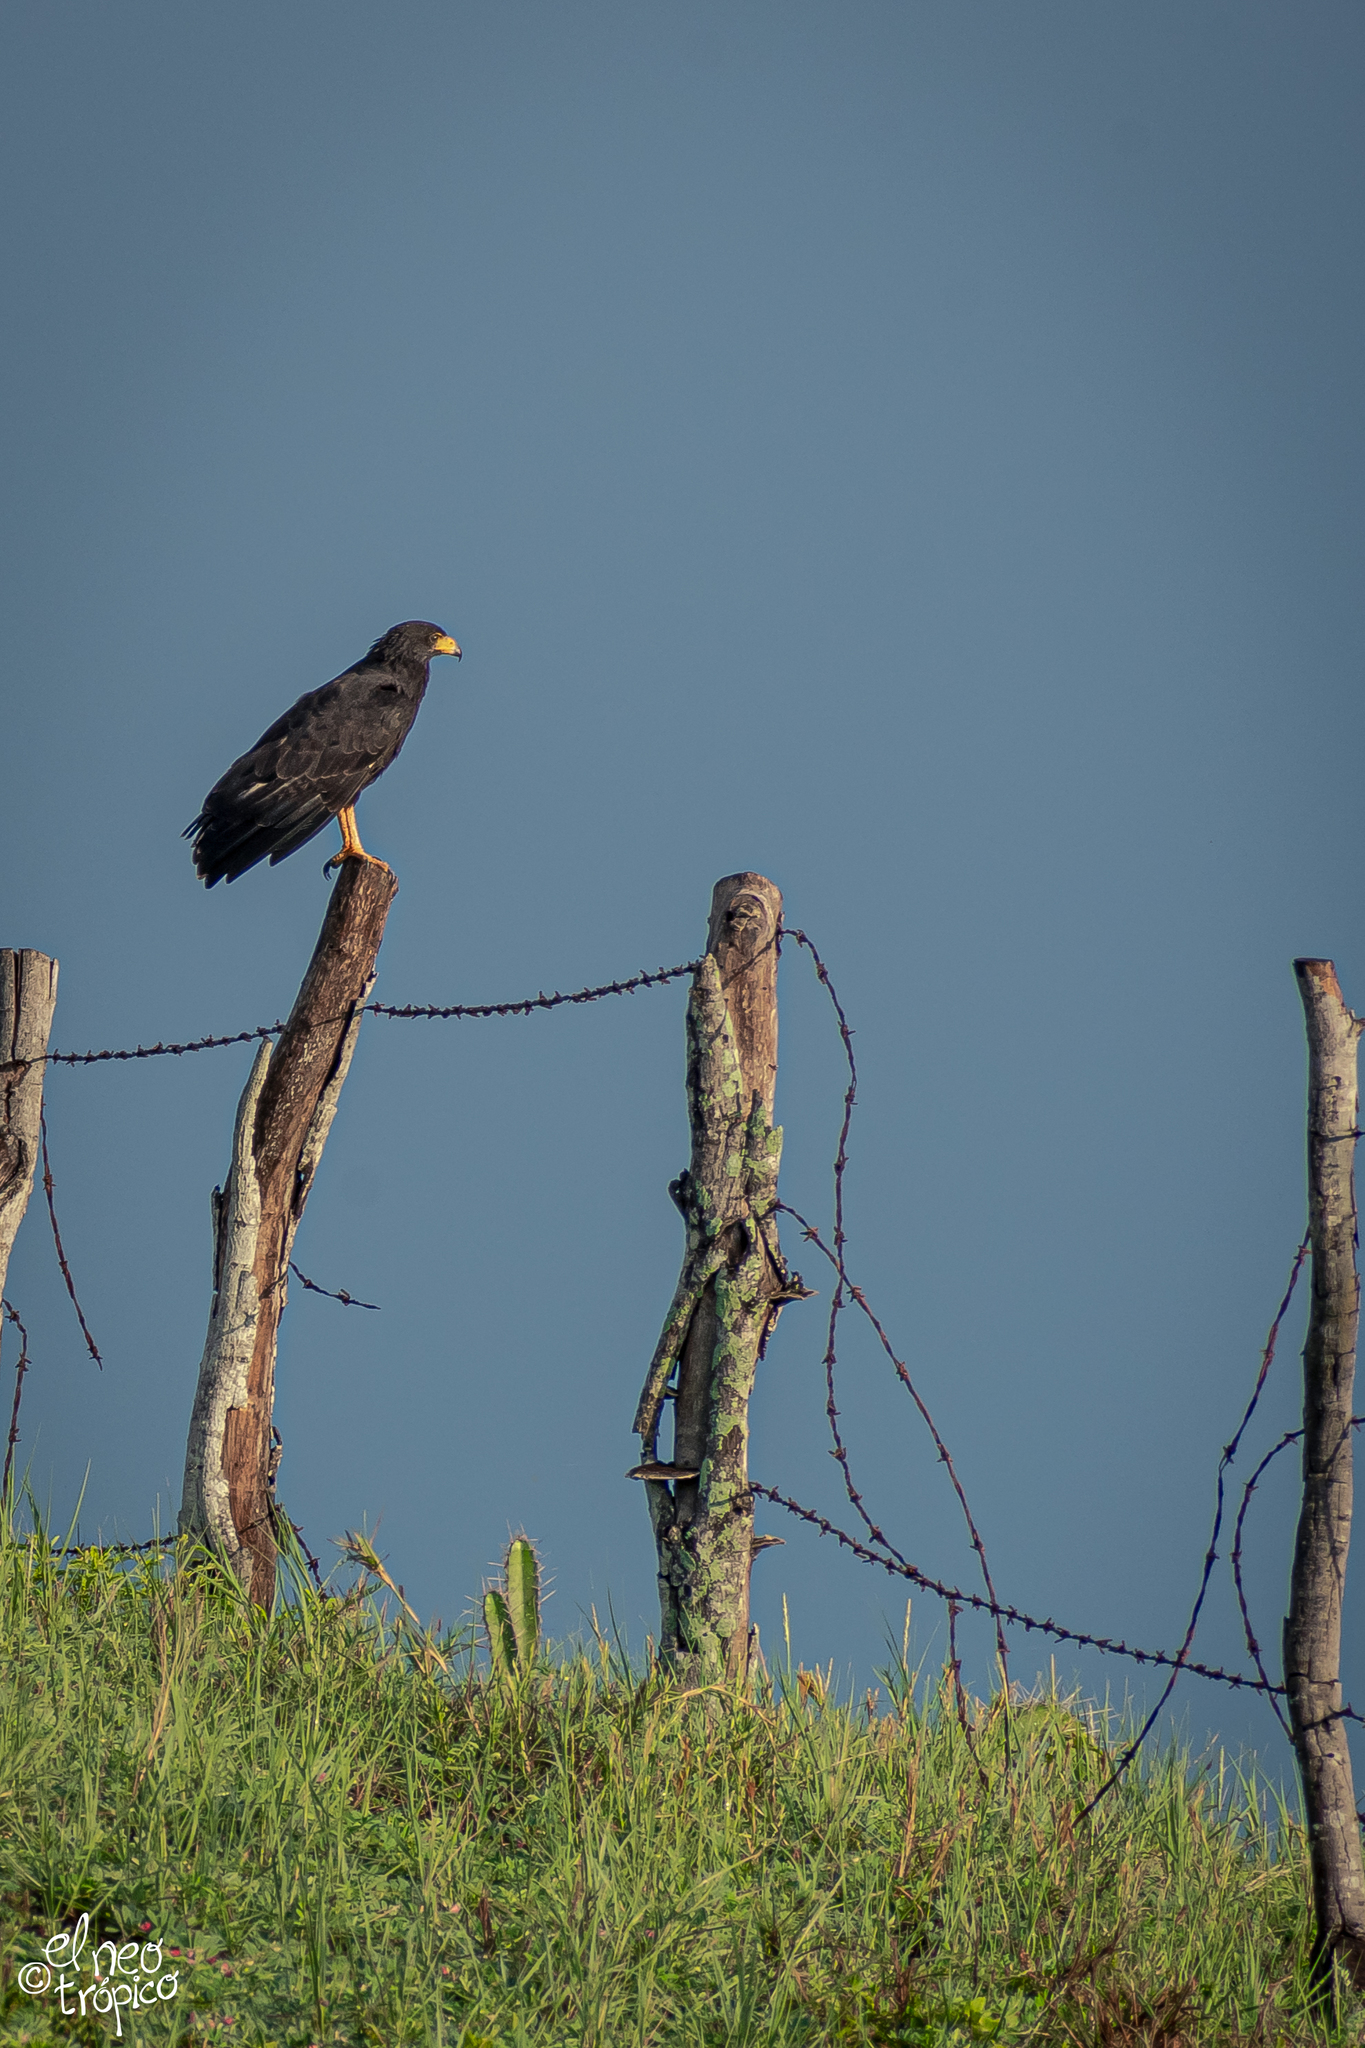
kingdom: Animalia
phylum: Chordata
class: Aves
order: Accipitriformes
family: Accipitridae
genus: Buteogallus
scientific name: Buteogallus anthracinus
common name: Common black hawk
